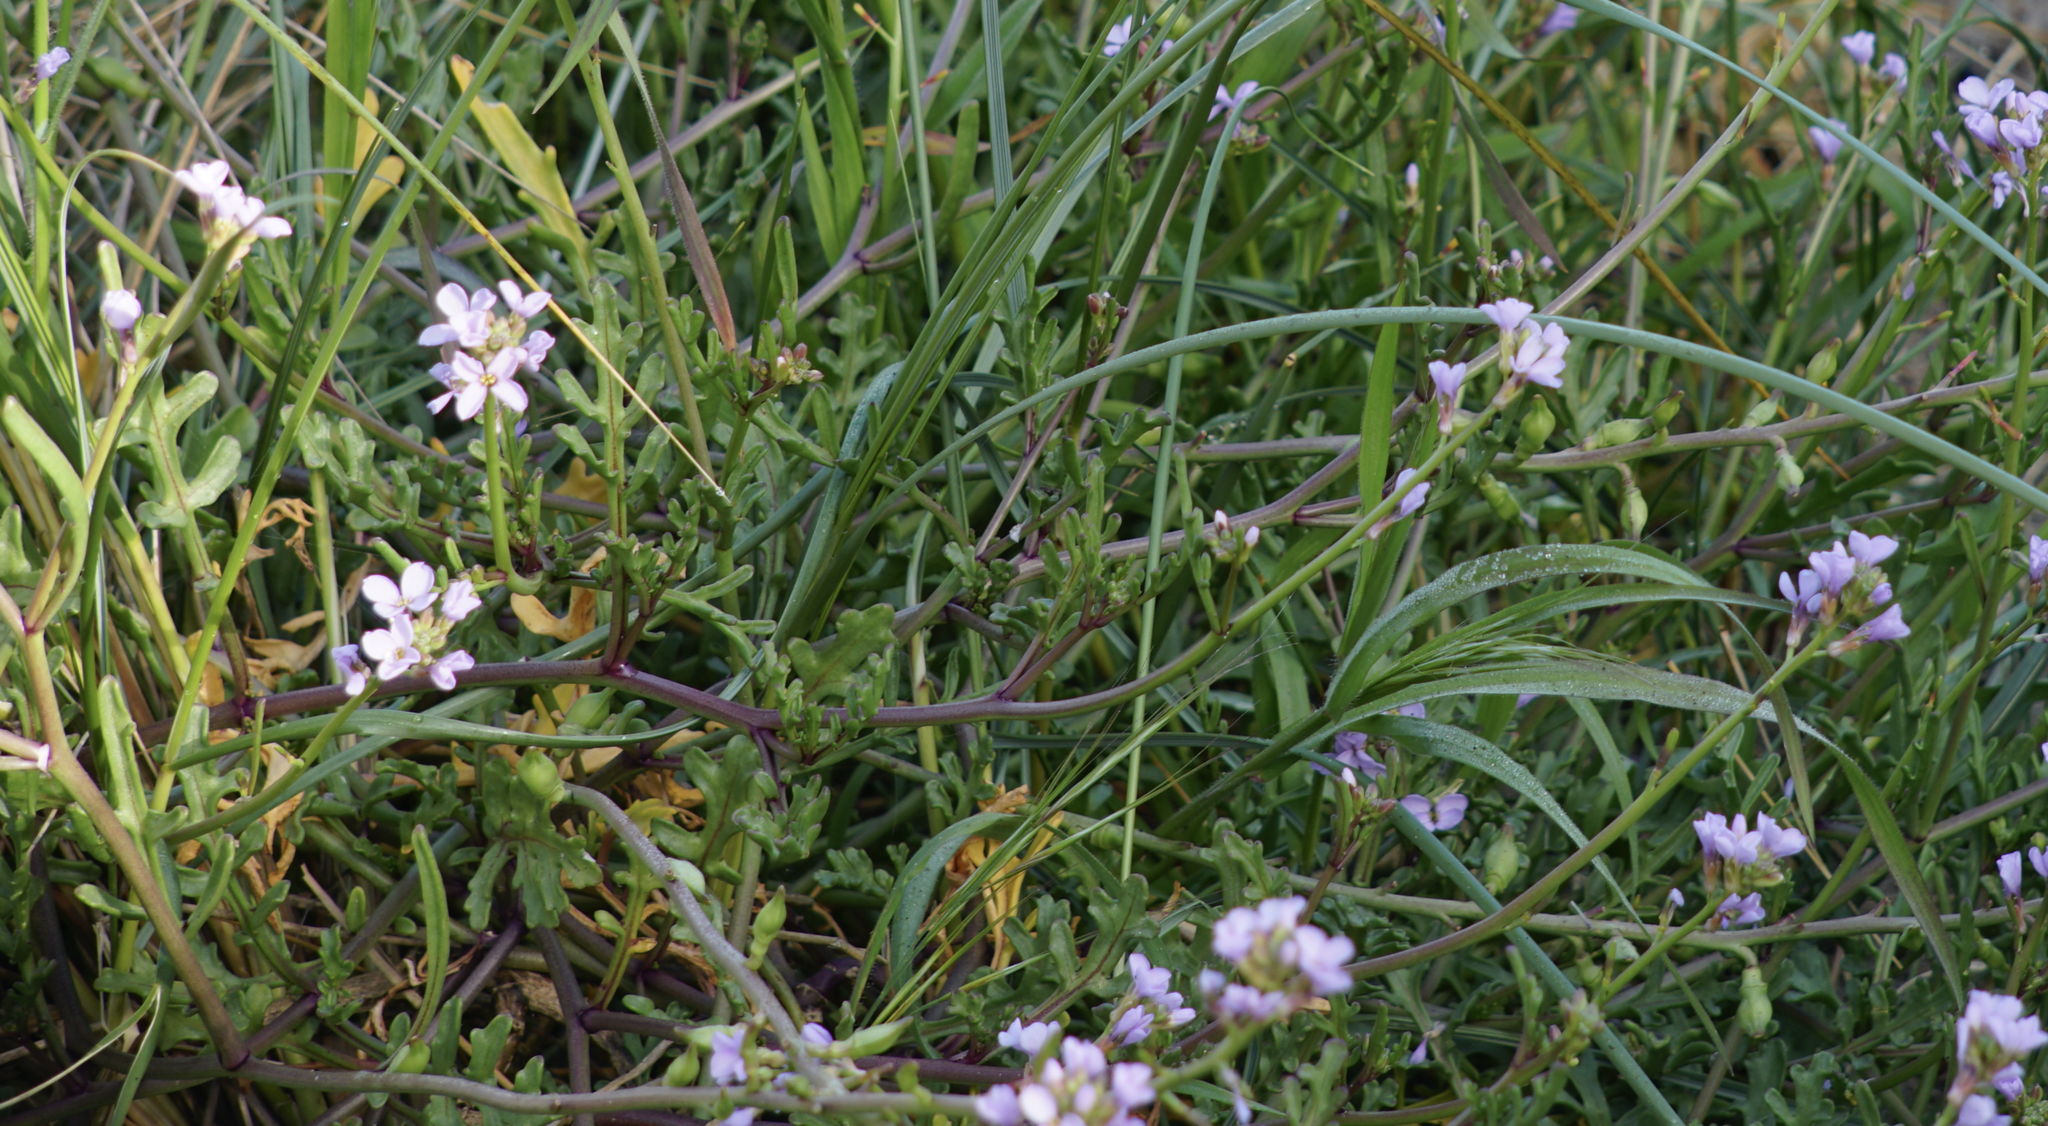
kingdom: Plantae
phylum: Tracheophyta
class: Magnoliopsida
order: Brassicales
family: Brassicaceae
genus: Cakile
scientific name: Cakile maritima
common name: Sea rocket
